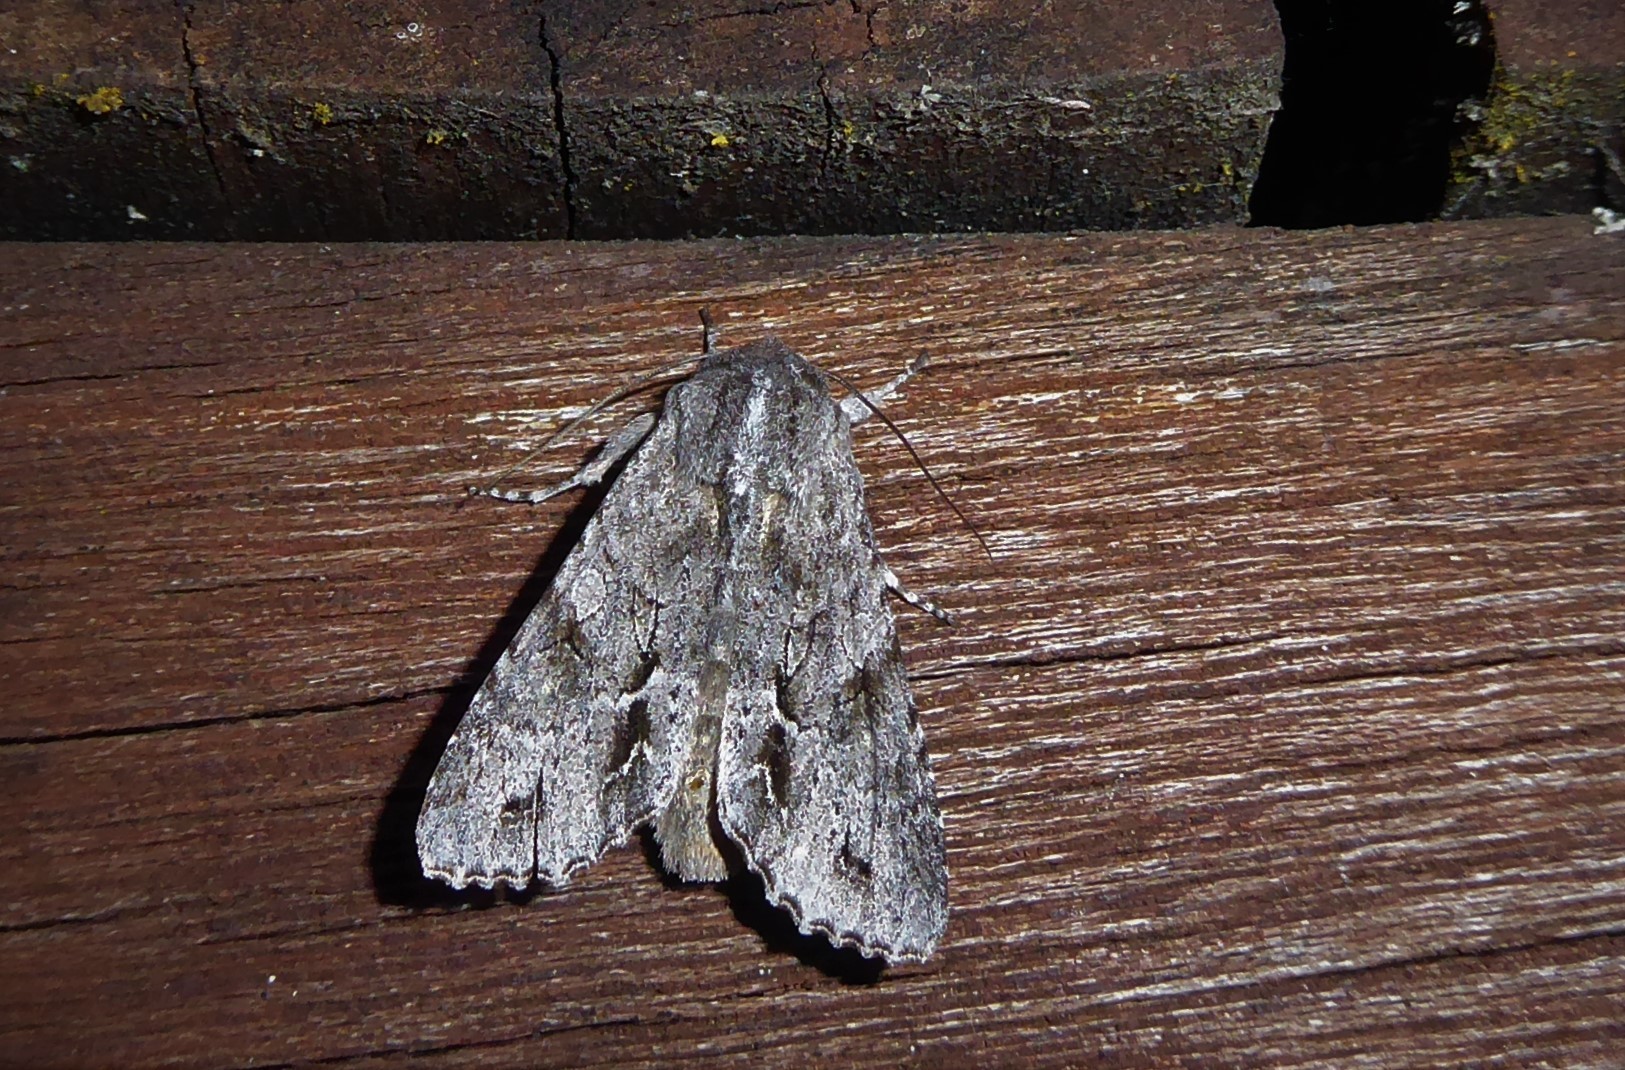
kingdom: Animalia
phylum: Arthropoda
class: Insecta
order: Lepidoptera
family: Noctuidae
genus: Ichneutica
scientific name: Ichneutica
